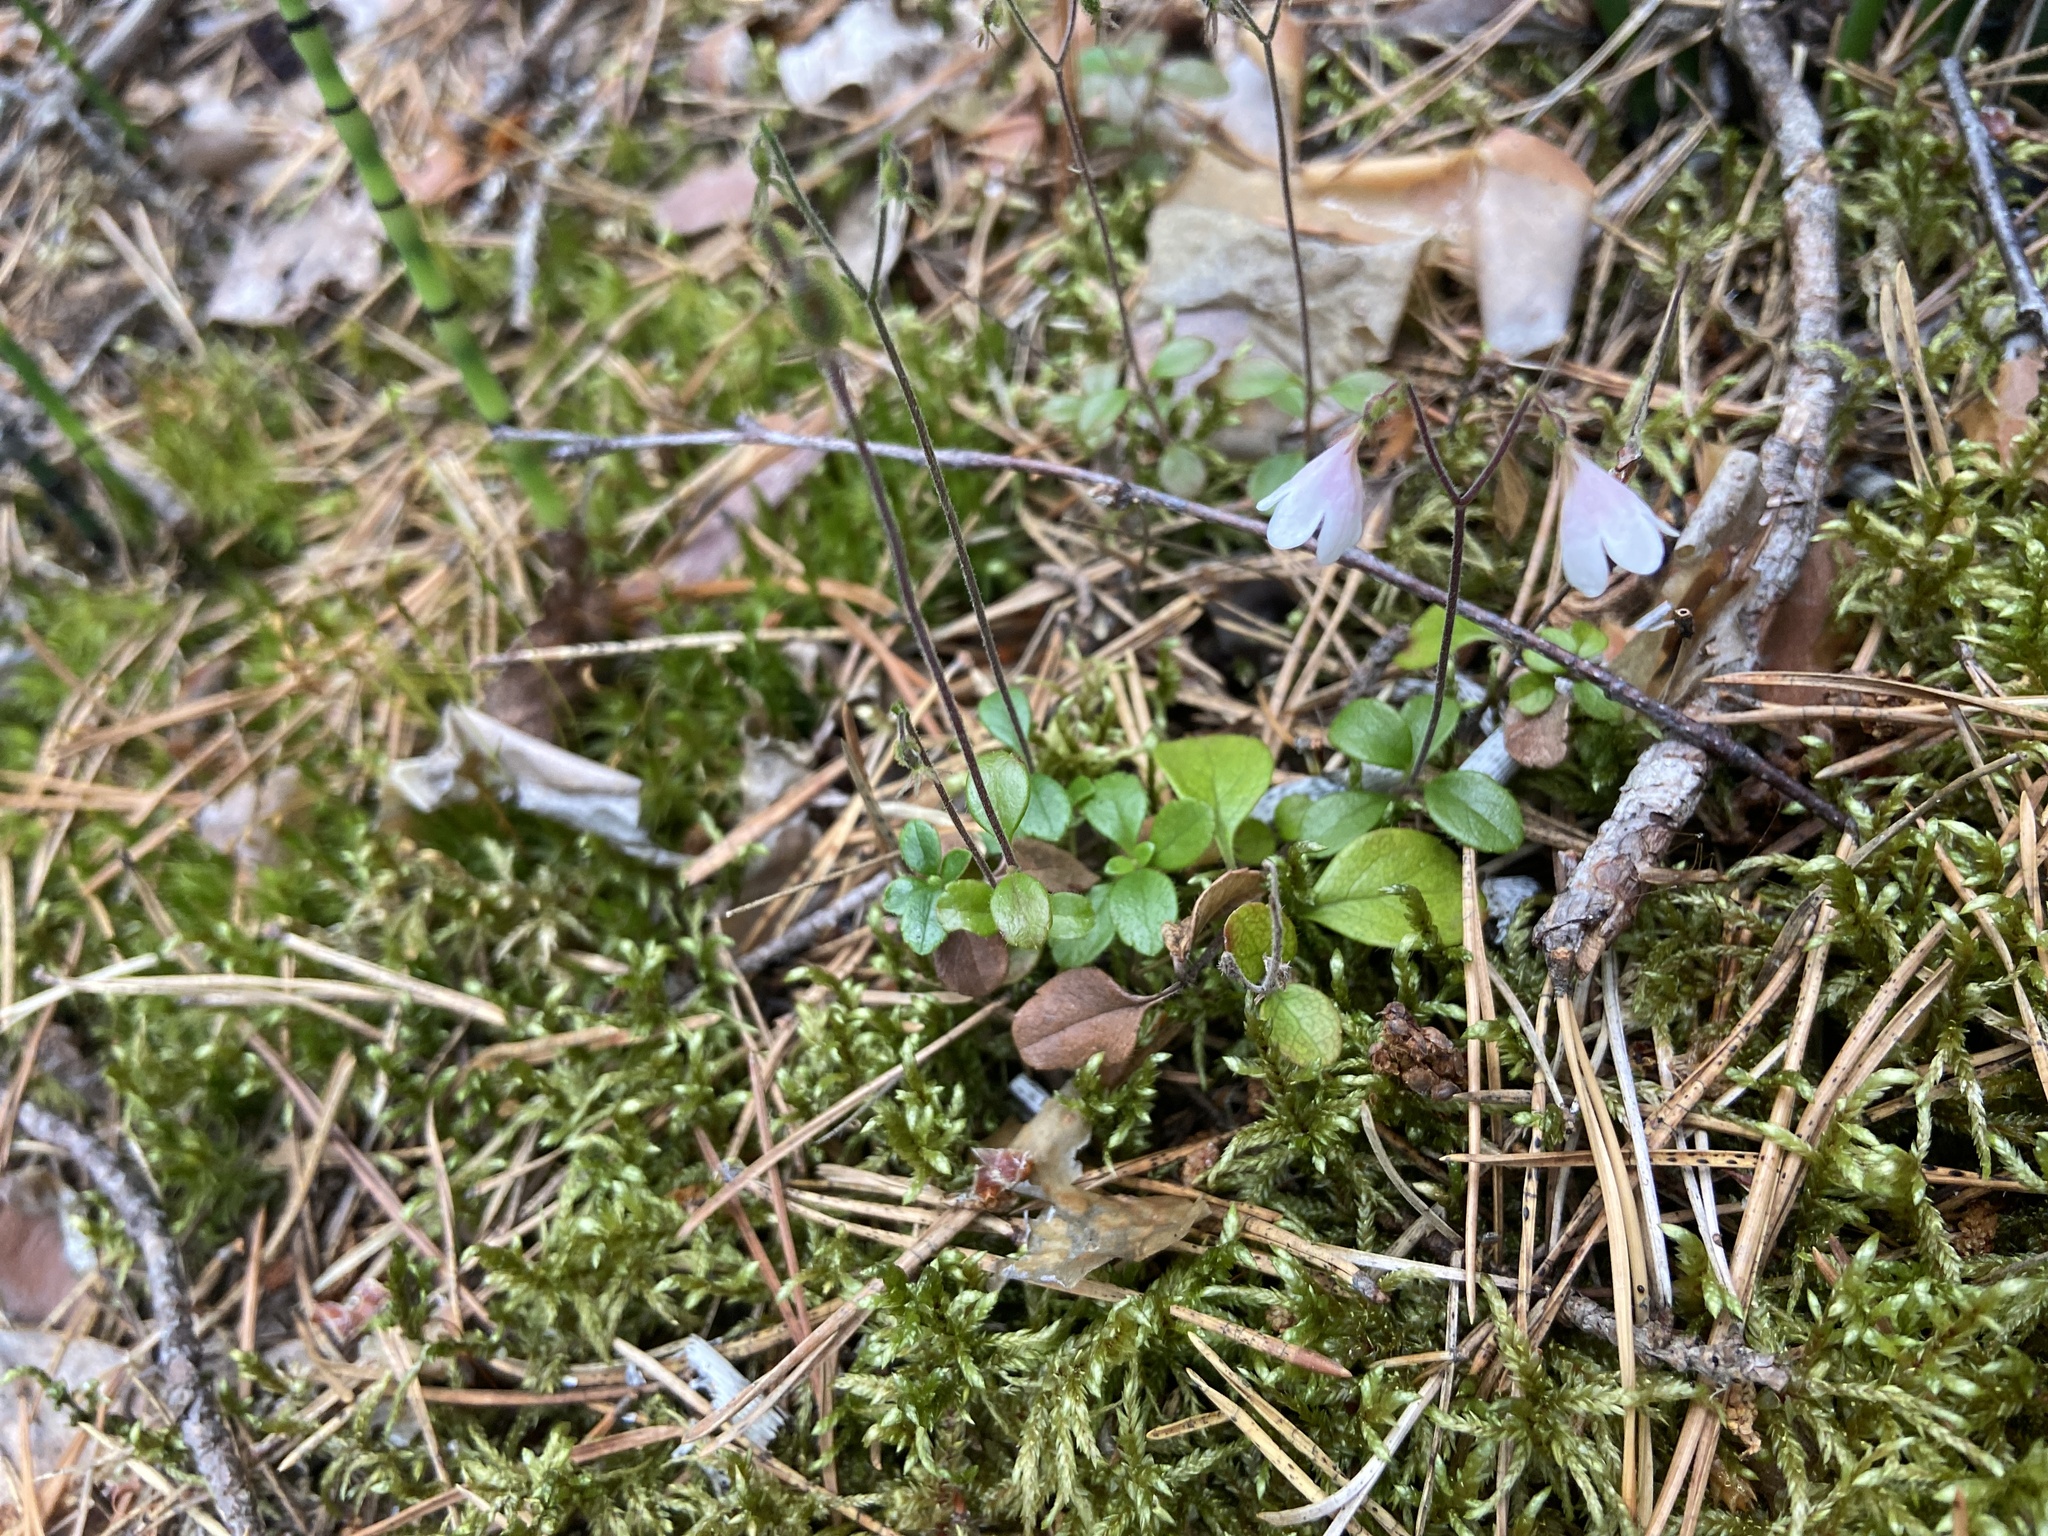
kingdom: Plantae
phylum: Tracheophyta
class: Magnoliopsida
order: Dipsacales
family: Caprifoliaceae
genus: Linnaea
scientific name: Linnaea borealis
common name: Twinflower
